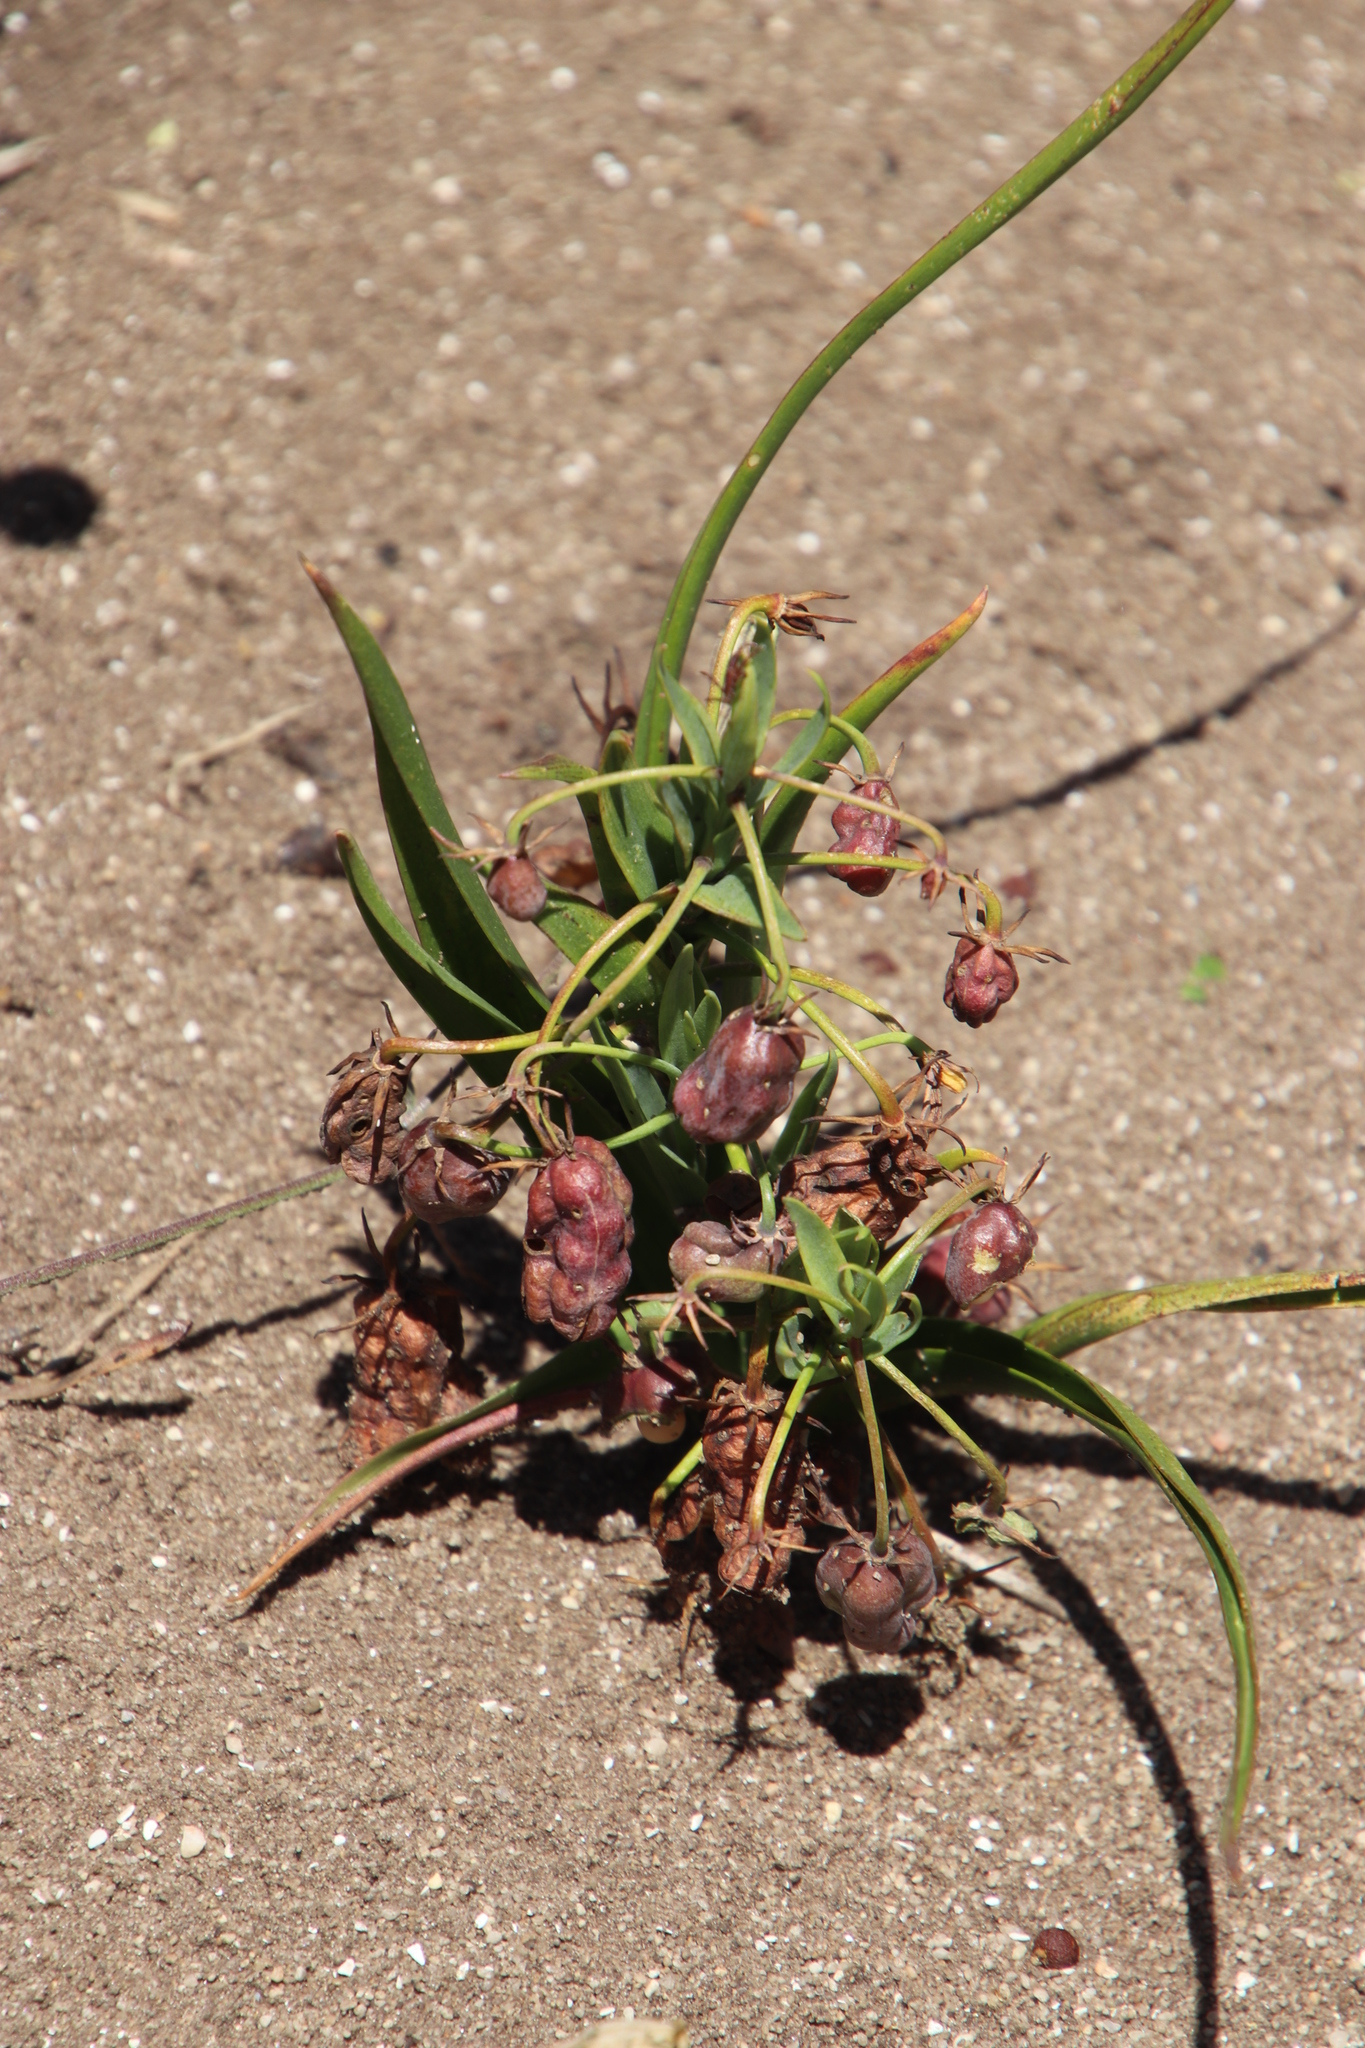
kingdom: Plantae
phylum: Tracheophyta
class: Liliopsida
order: Liliales
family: Colchicaceae
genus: Ornithoglossum
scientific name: Ornithoglossum viride
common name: Cape poison-onion
